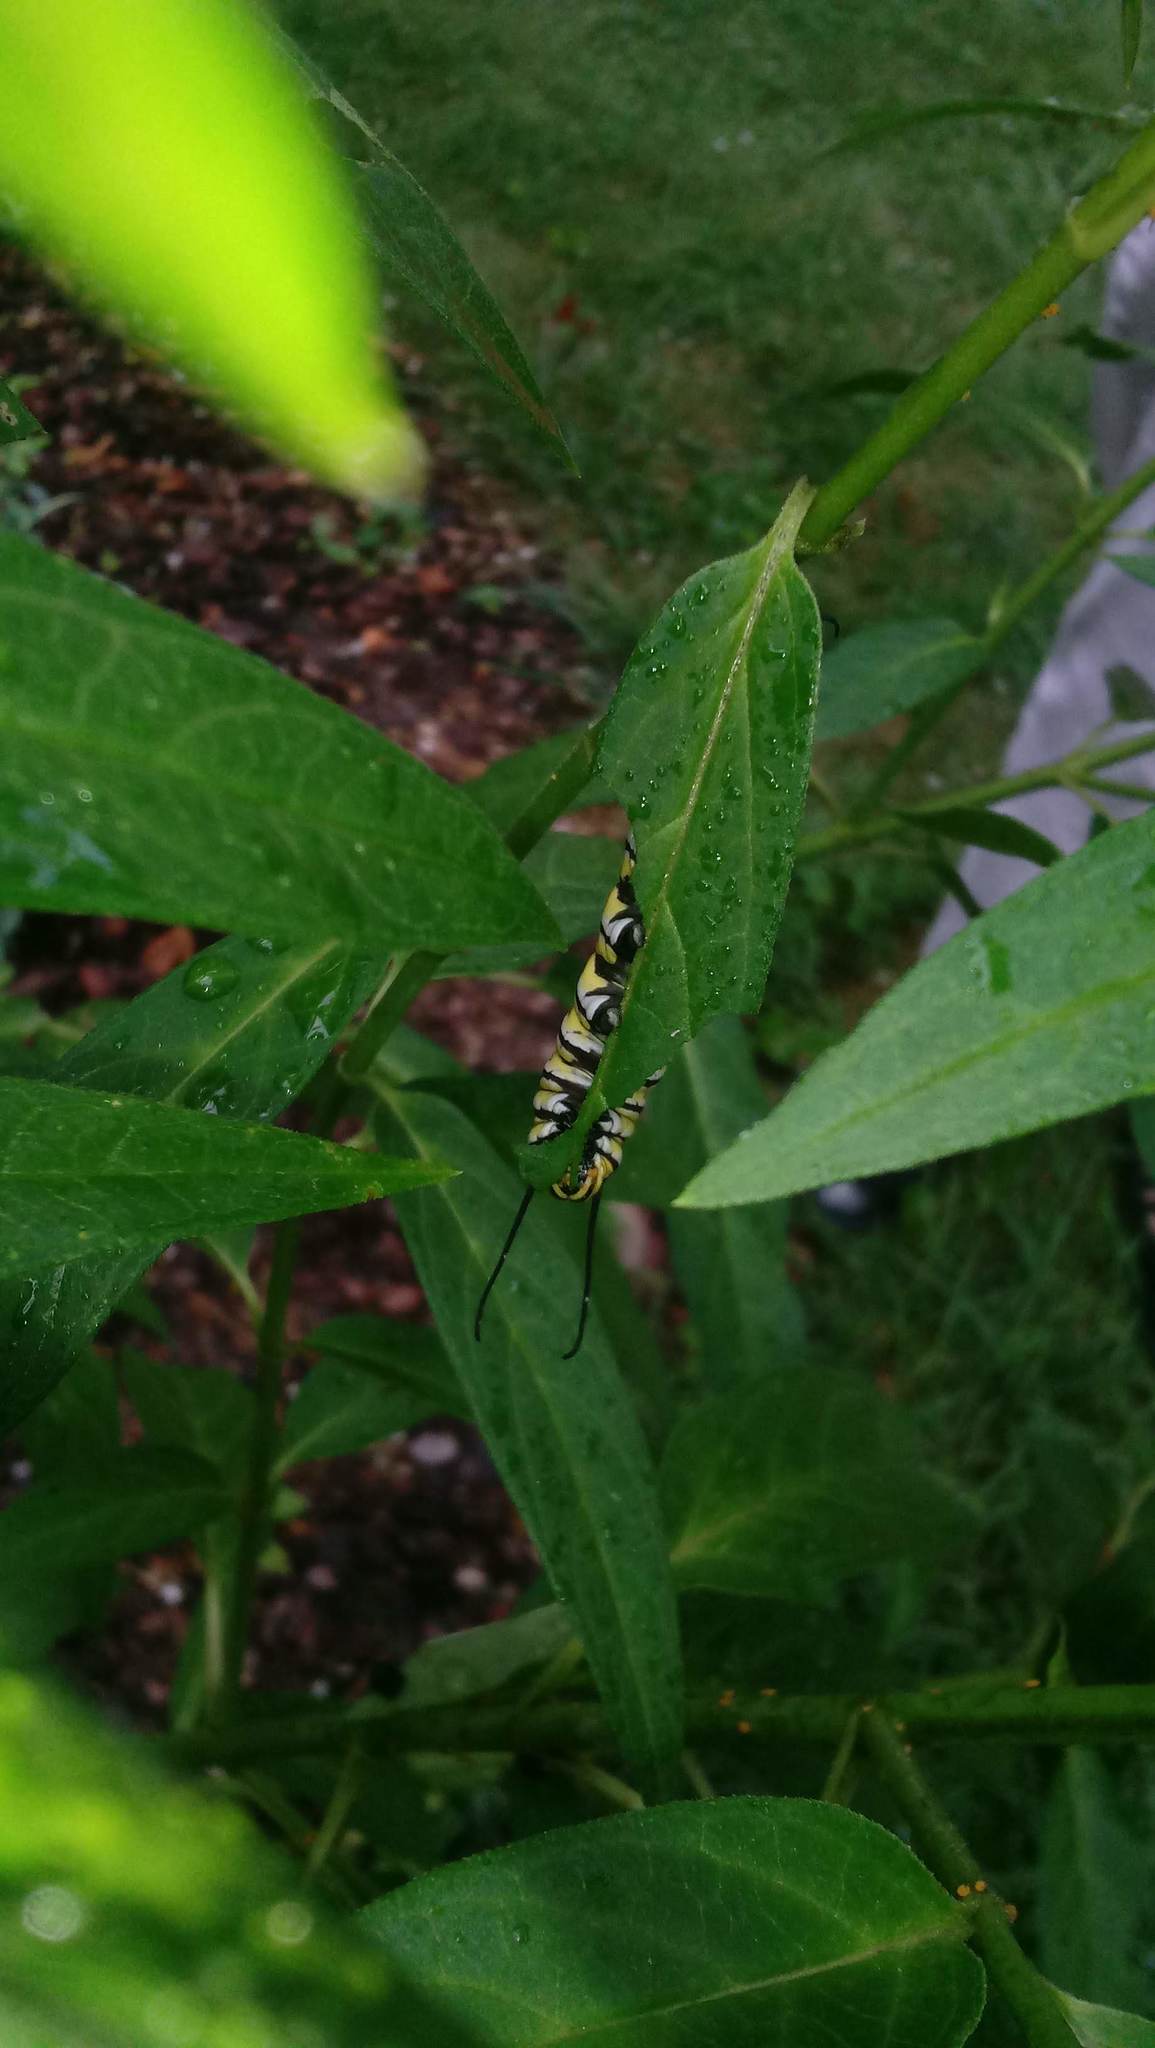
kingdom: Animalia
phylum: Arthropoda
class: Insecta
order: Lepidoptera
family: Nymphalidae
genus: Danaus
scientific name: Danaus plexippus
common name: Monarch
